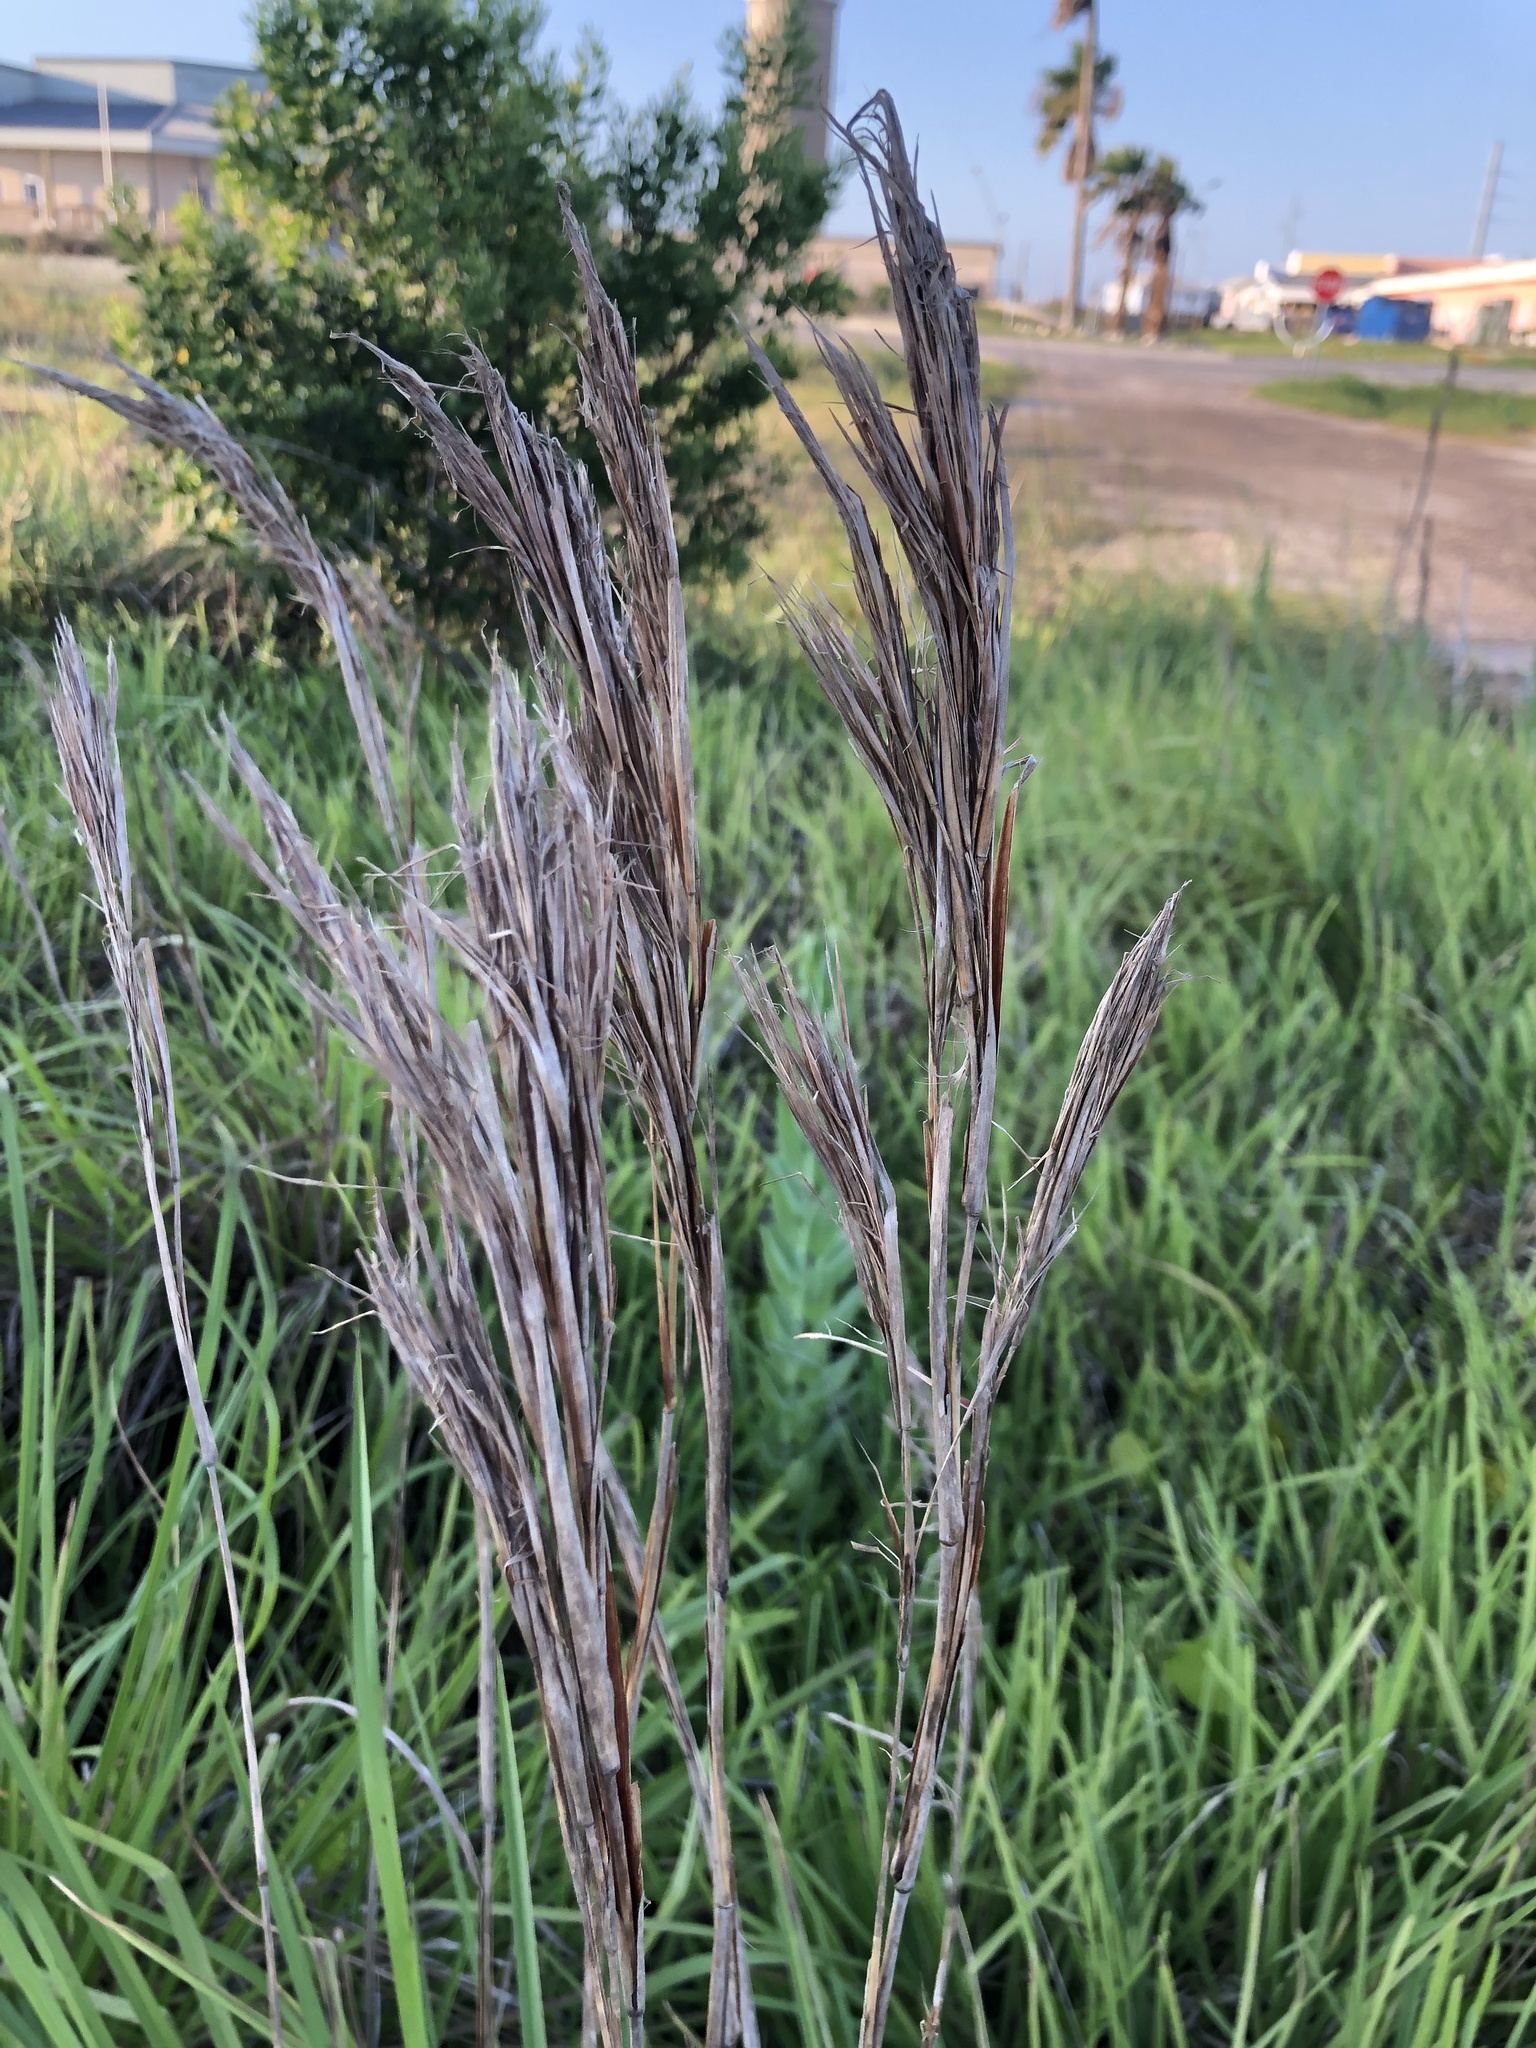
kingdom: Plantae
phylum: Tracheophyta
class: Liliopsida
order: Poales
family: Poaceae
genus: Andropogon
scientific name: Andropogon tenuispatheus
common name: Bushy bluestem
